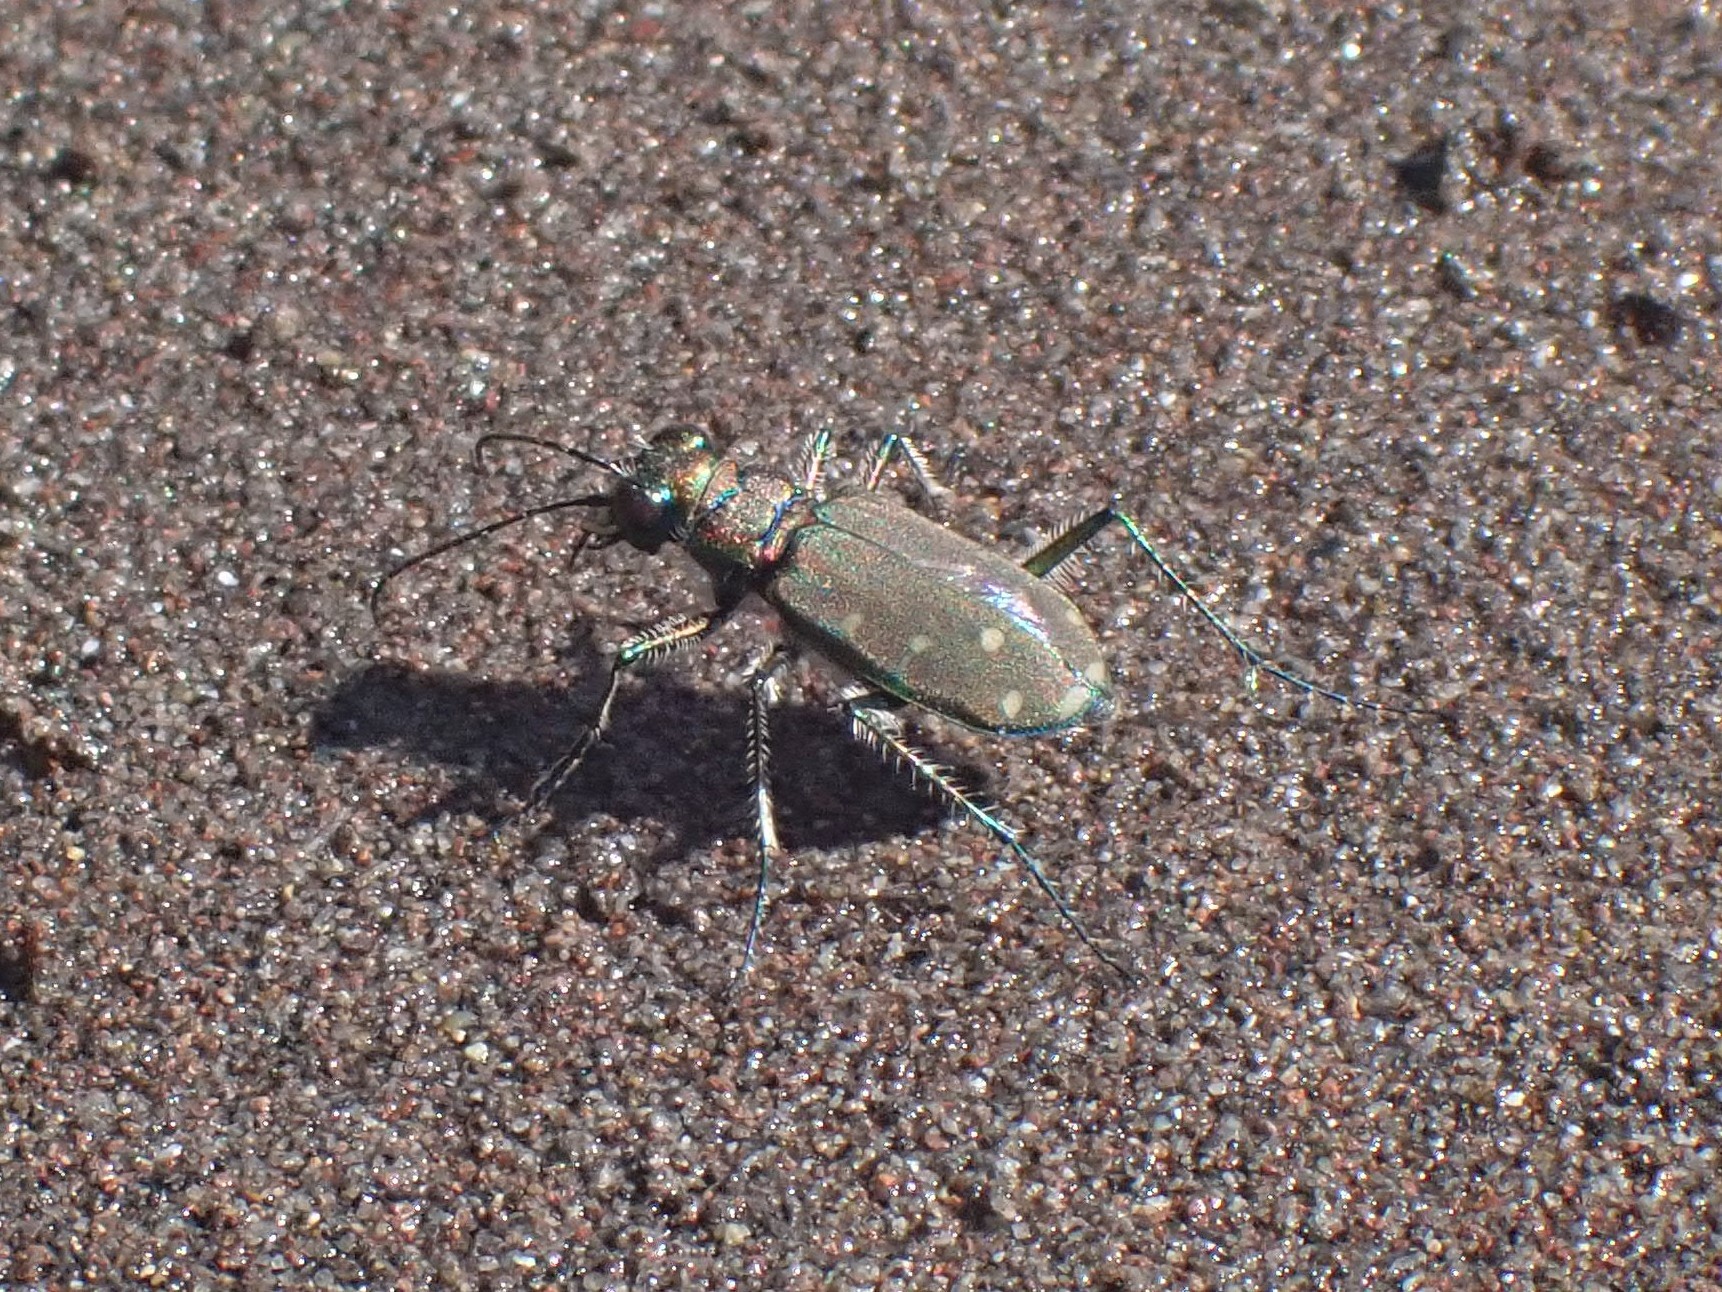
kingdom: Animalia
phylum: Arthropoda
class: Insecta
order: Coleoptera
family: Carabidae
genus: Cicindela
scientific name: Cicindela oregona
